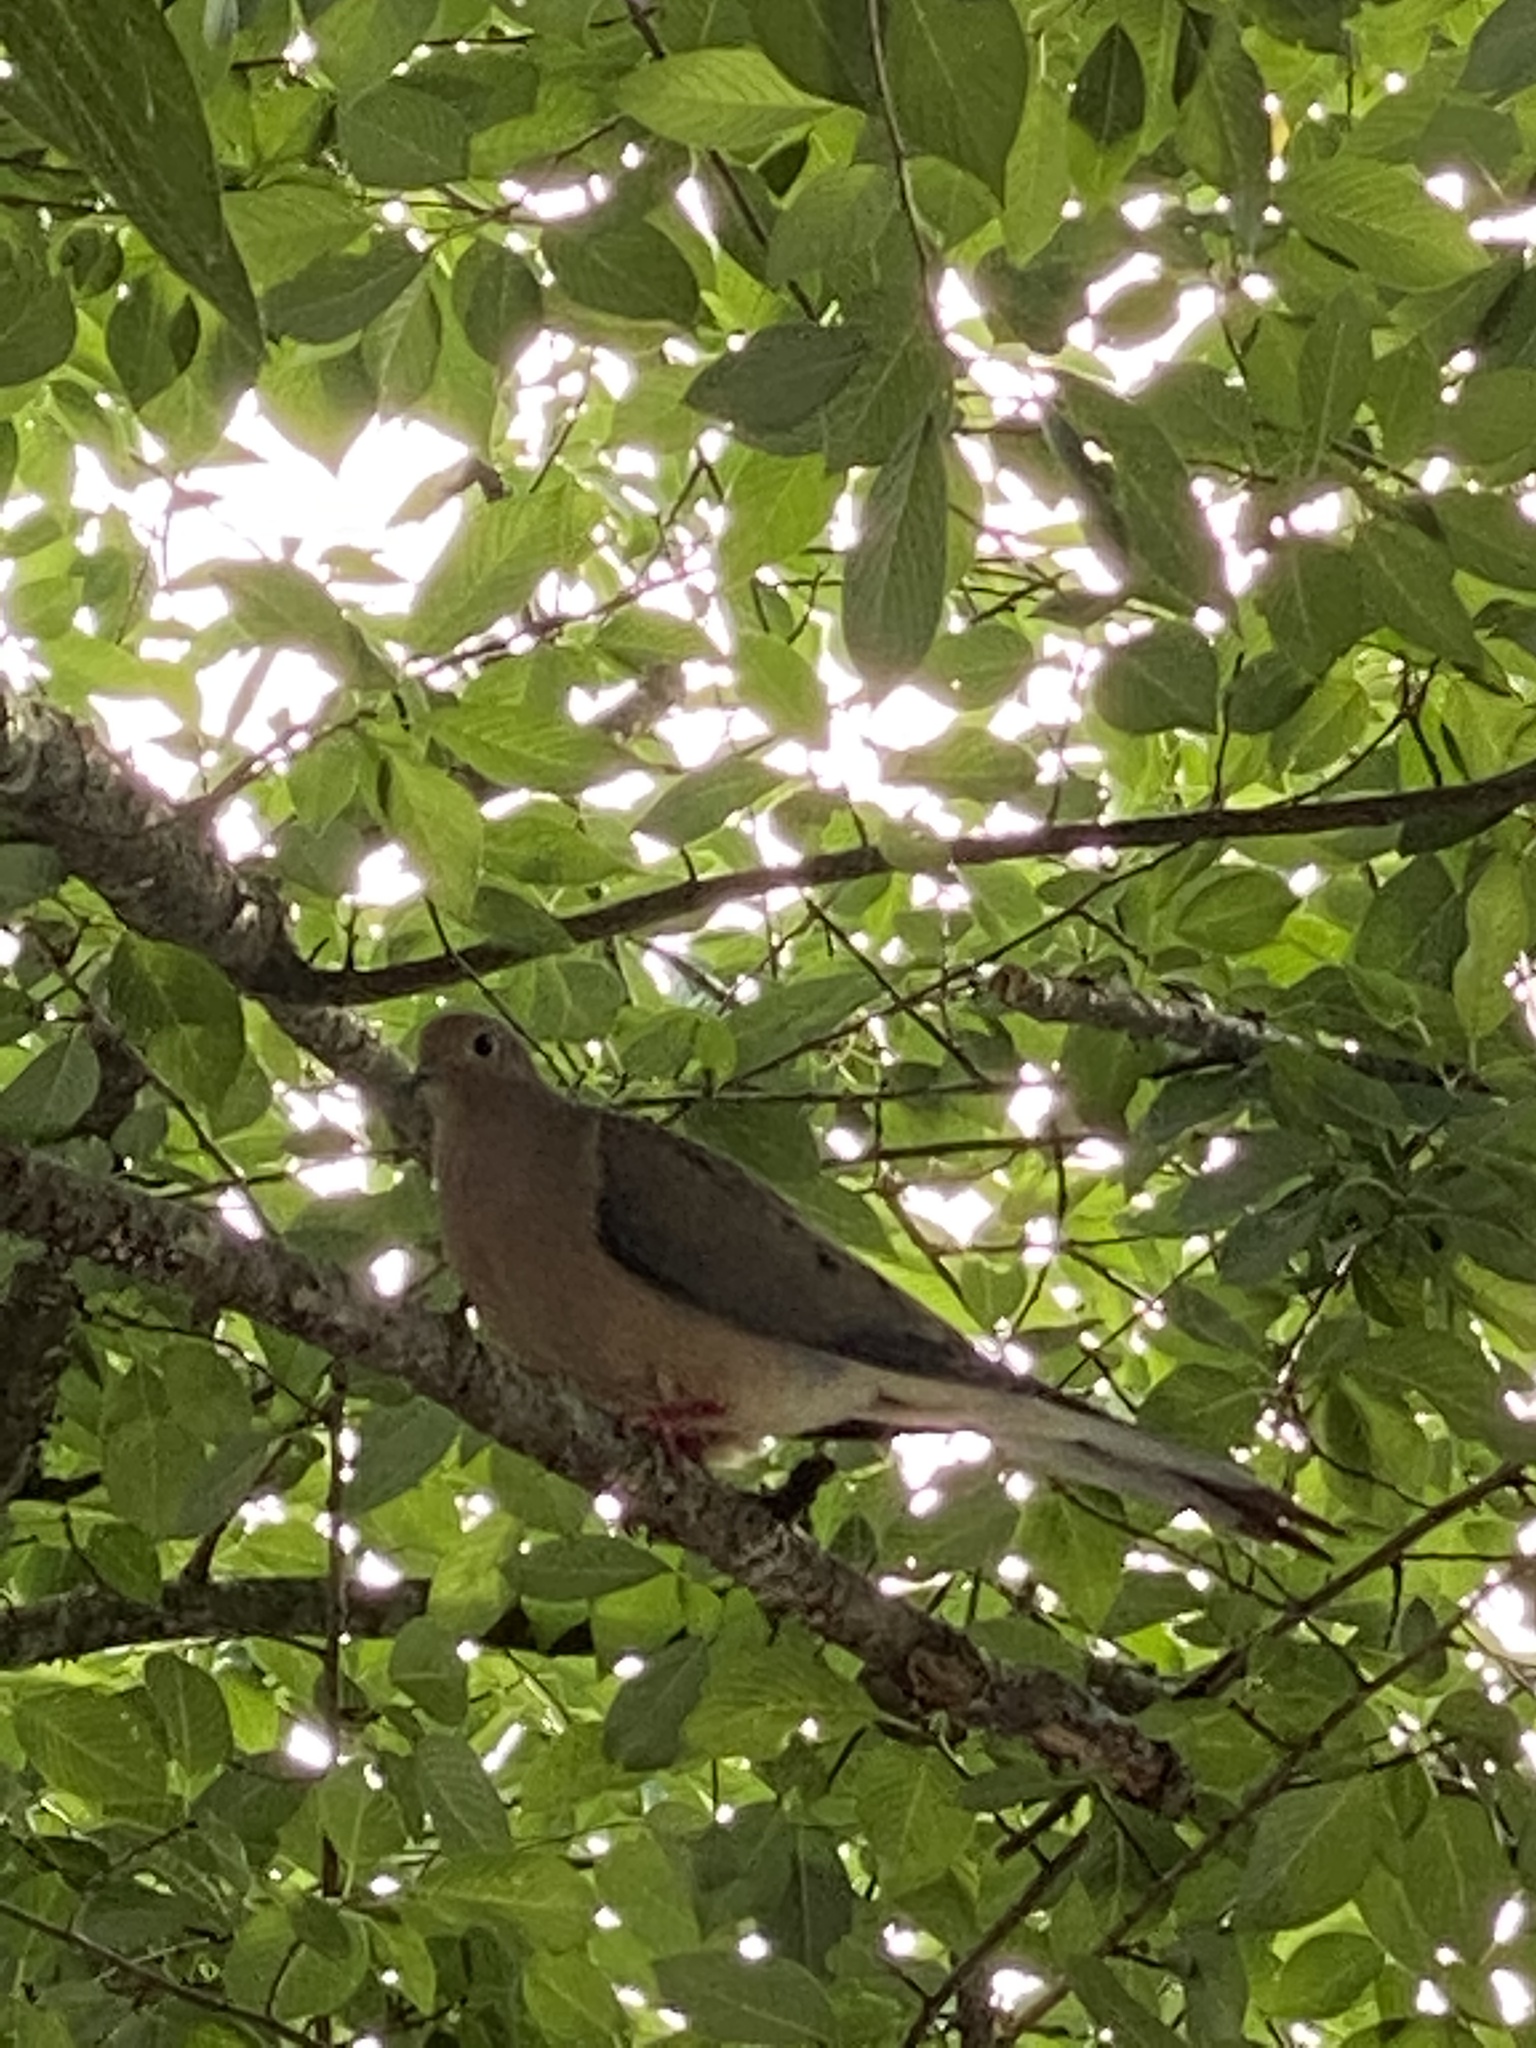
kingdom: Animalia
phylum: Chordata
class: Aves
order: Columbiformes
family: Columbidae
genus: Zenaida
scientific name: Zenaida macroura
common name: Mourning dove
